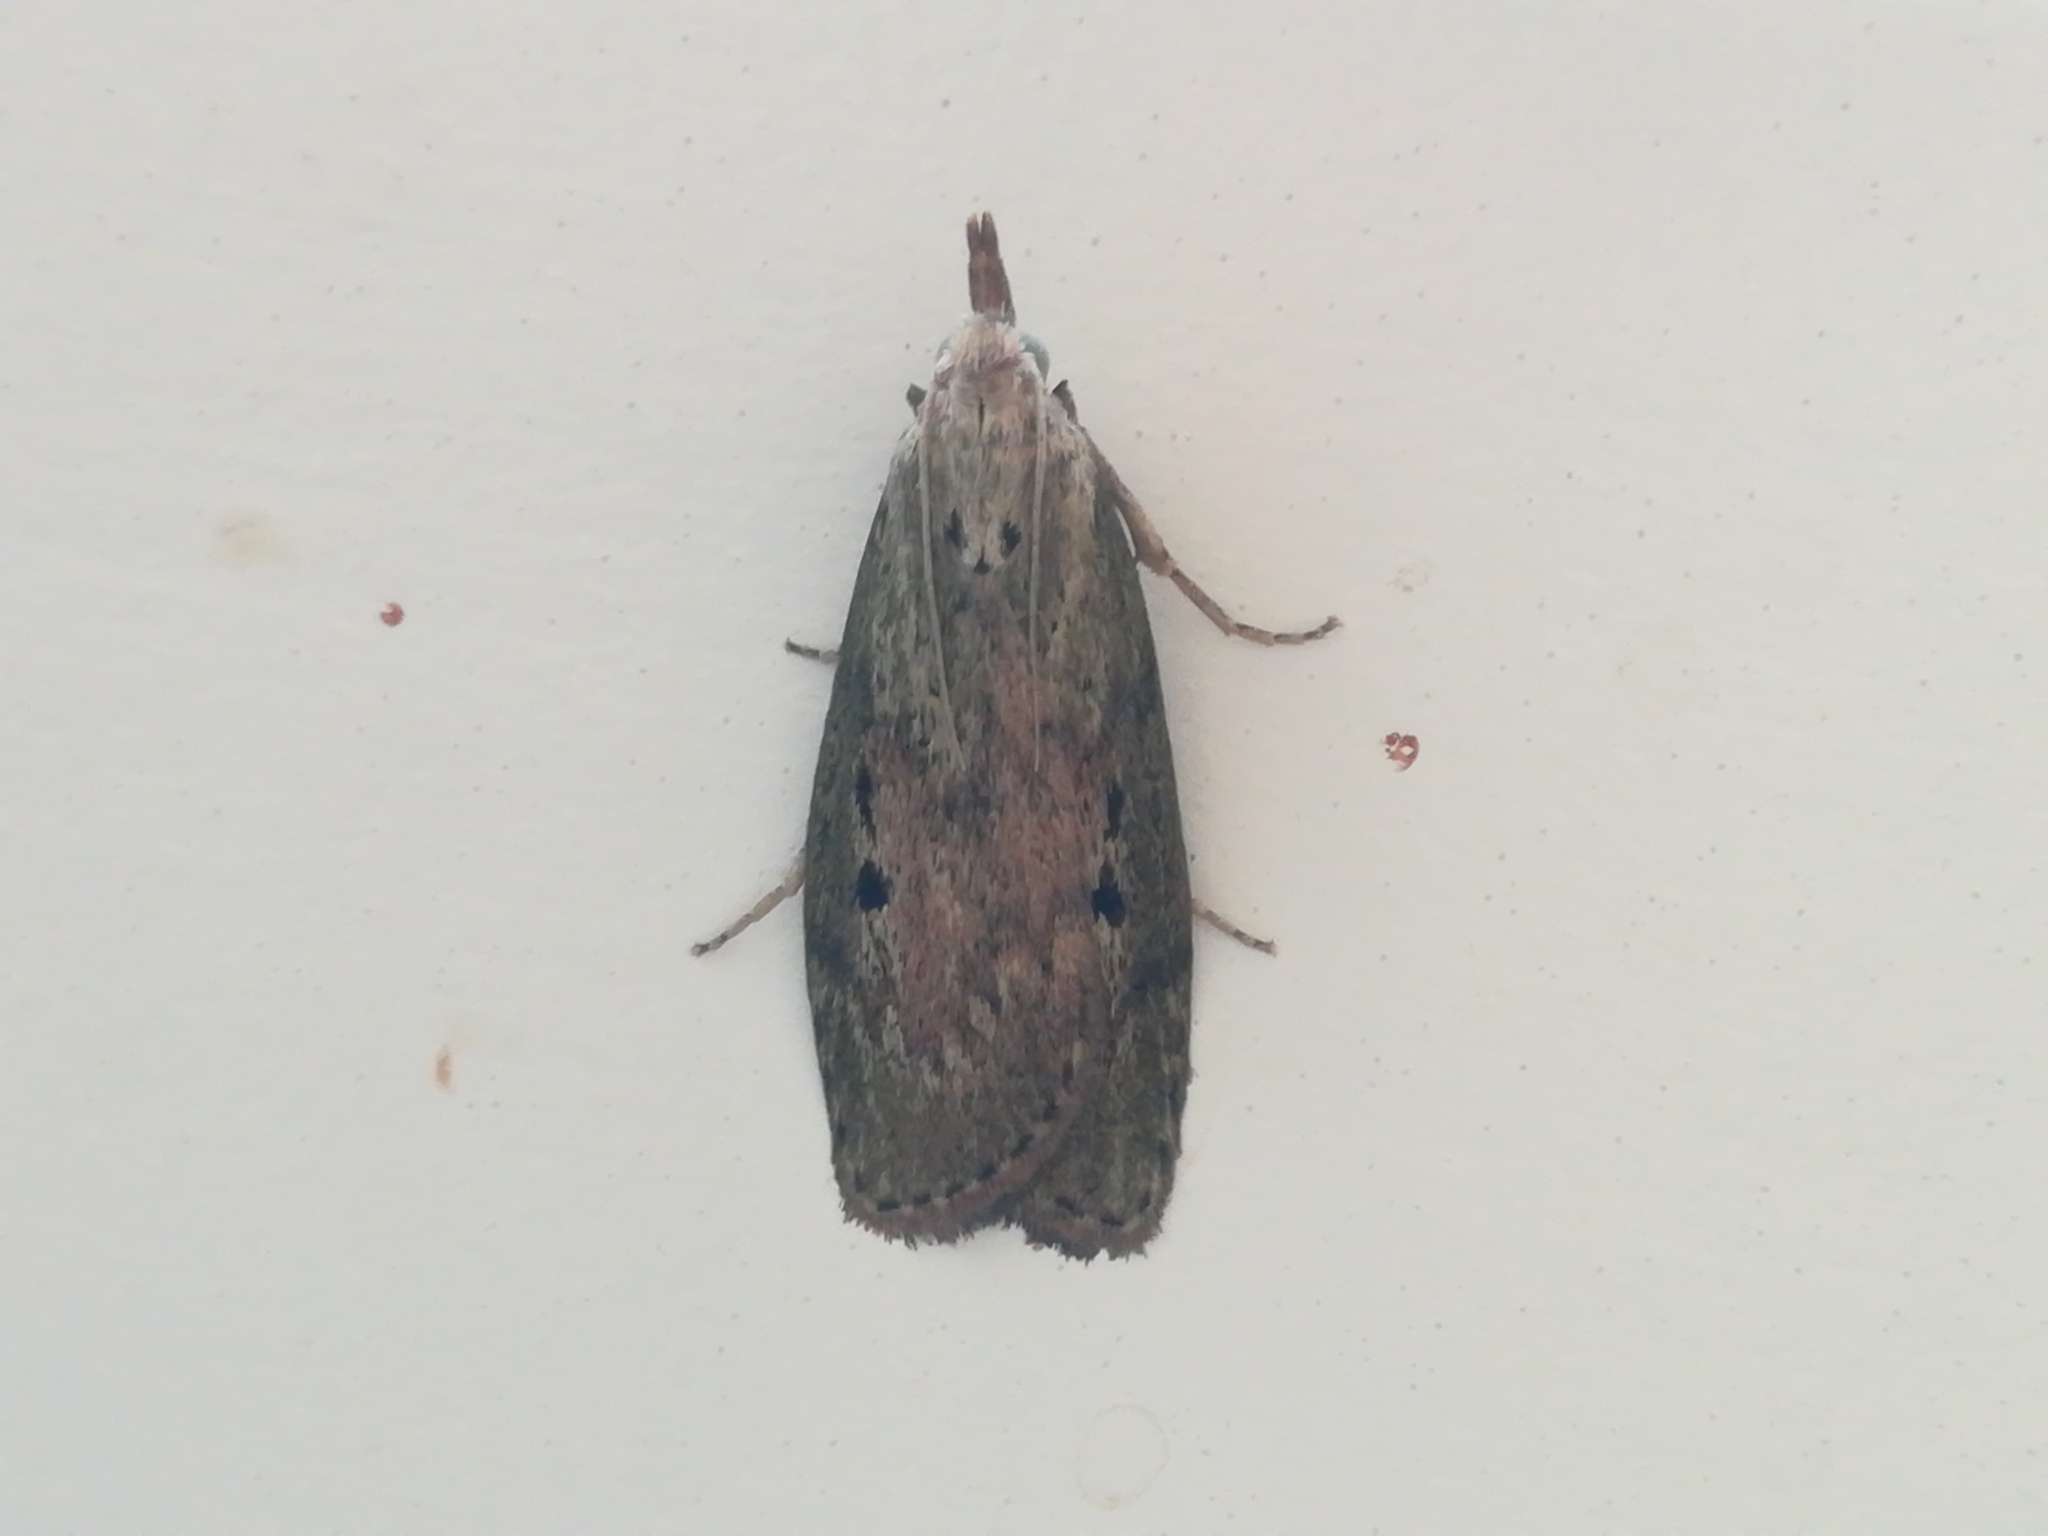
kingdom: Animalia
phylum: Arthropoda
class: Insecta
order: Lepidoptera
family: Pyralidae
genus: Aphomia
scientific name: Aphomia sociella
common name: Bee moth
